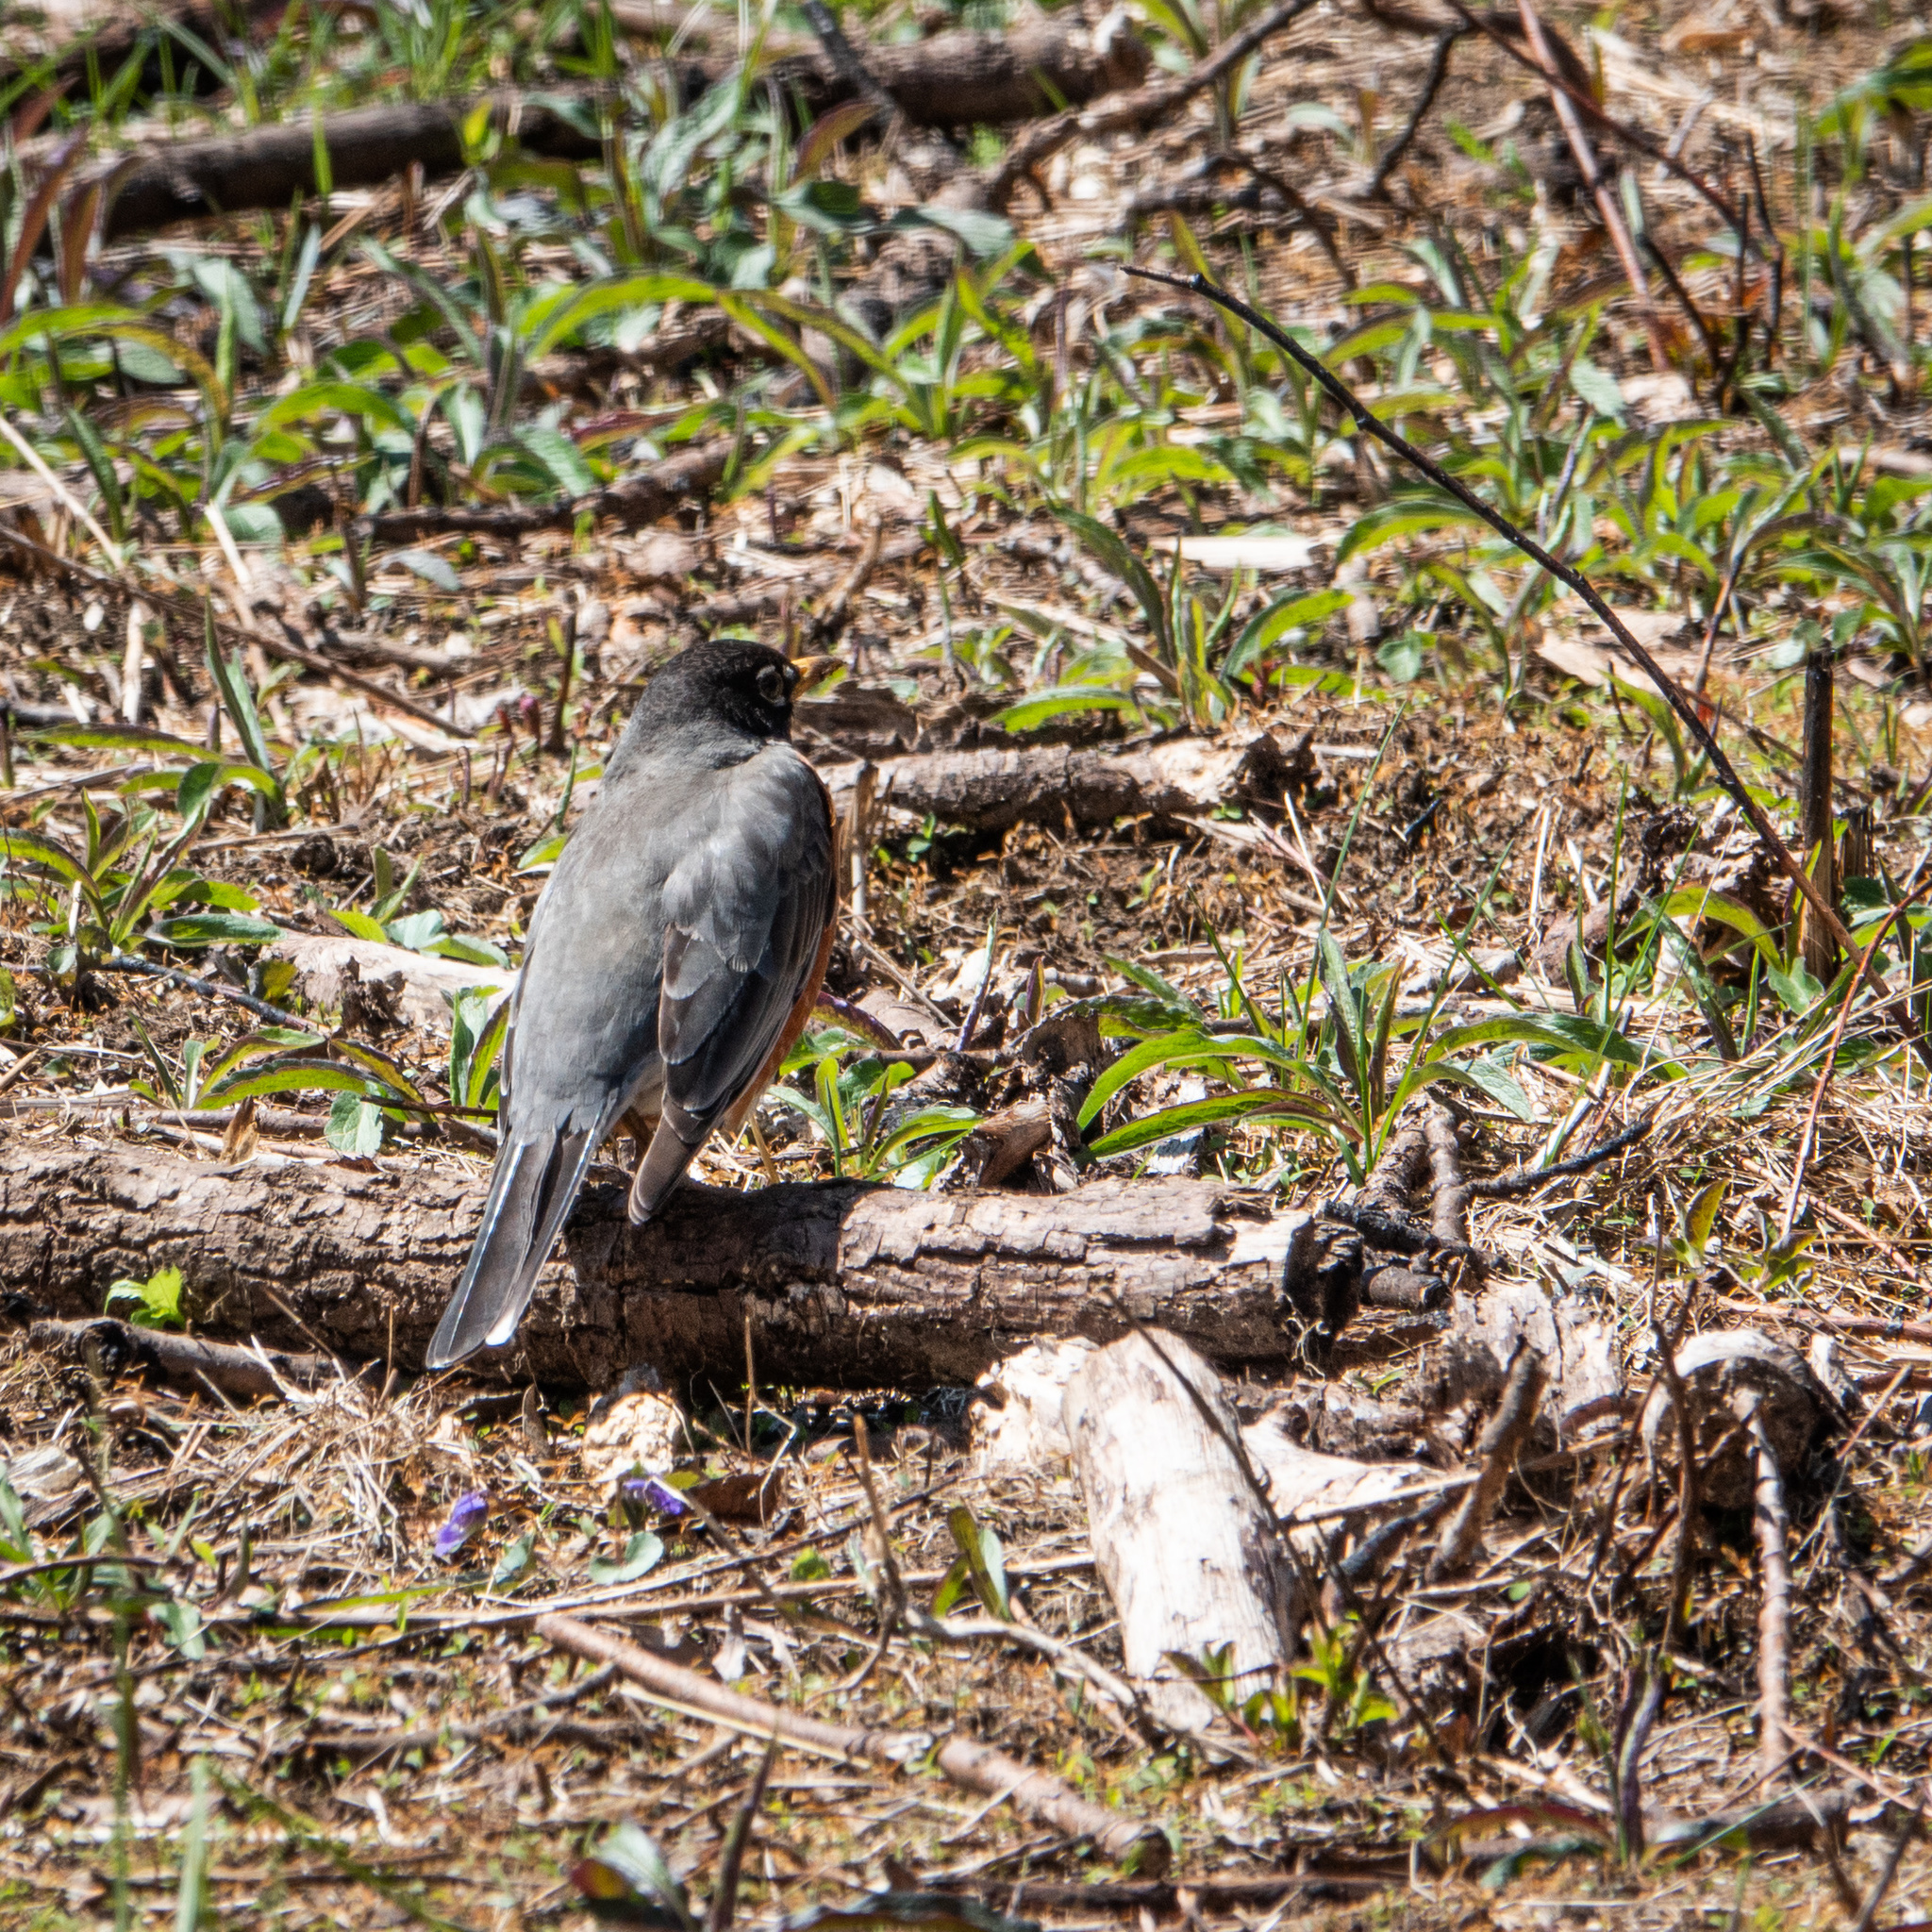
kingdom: Animalia
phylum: Chordata
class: Aves
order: Passeriformes
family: Turdidae
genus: Turdus
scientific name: Turdus migratorius
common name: American robin
